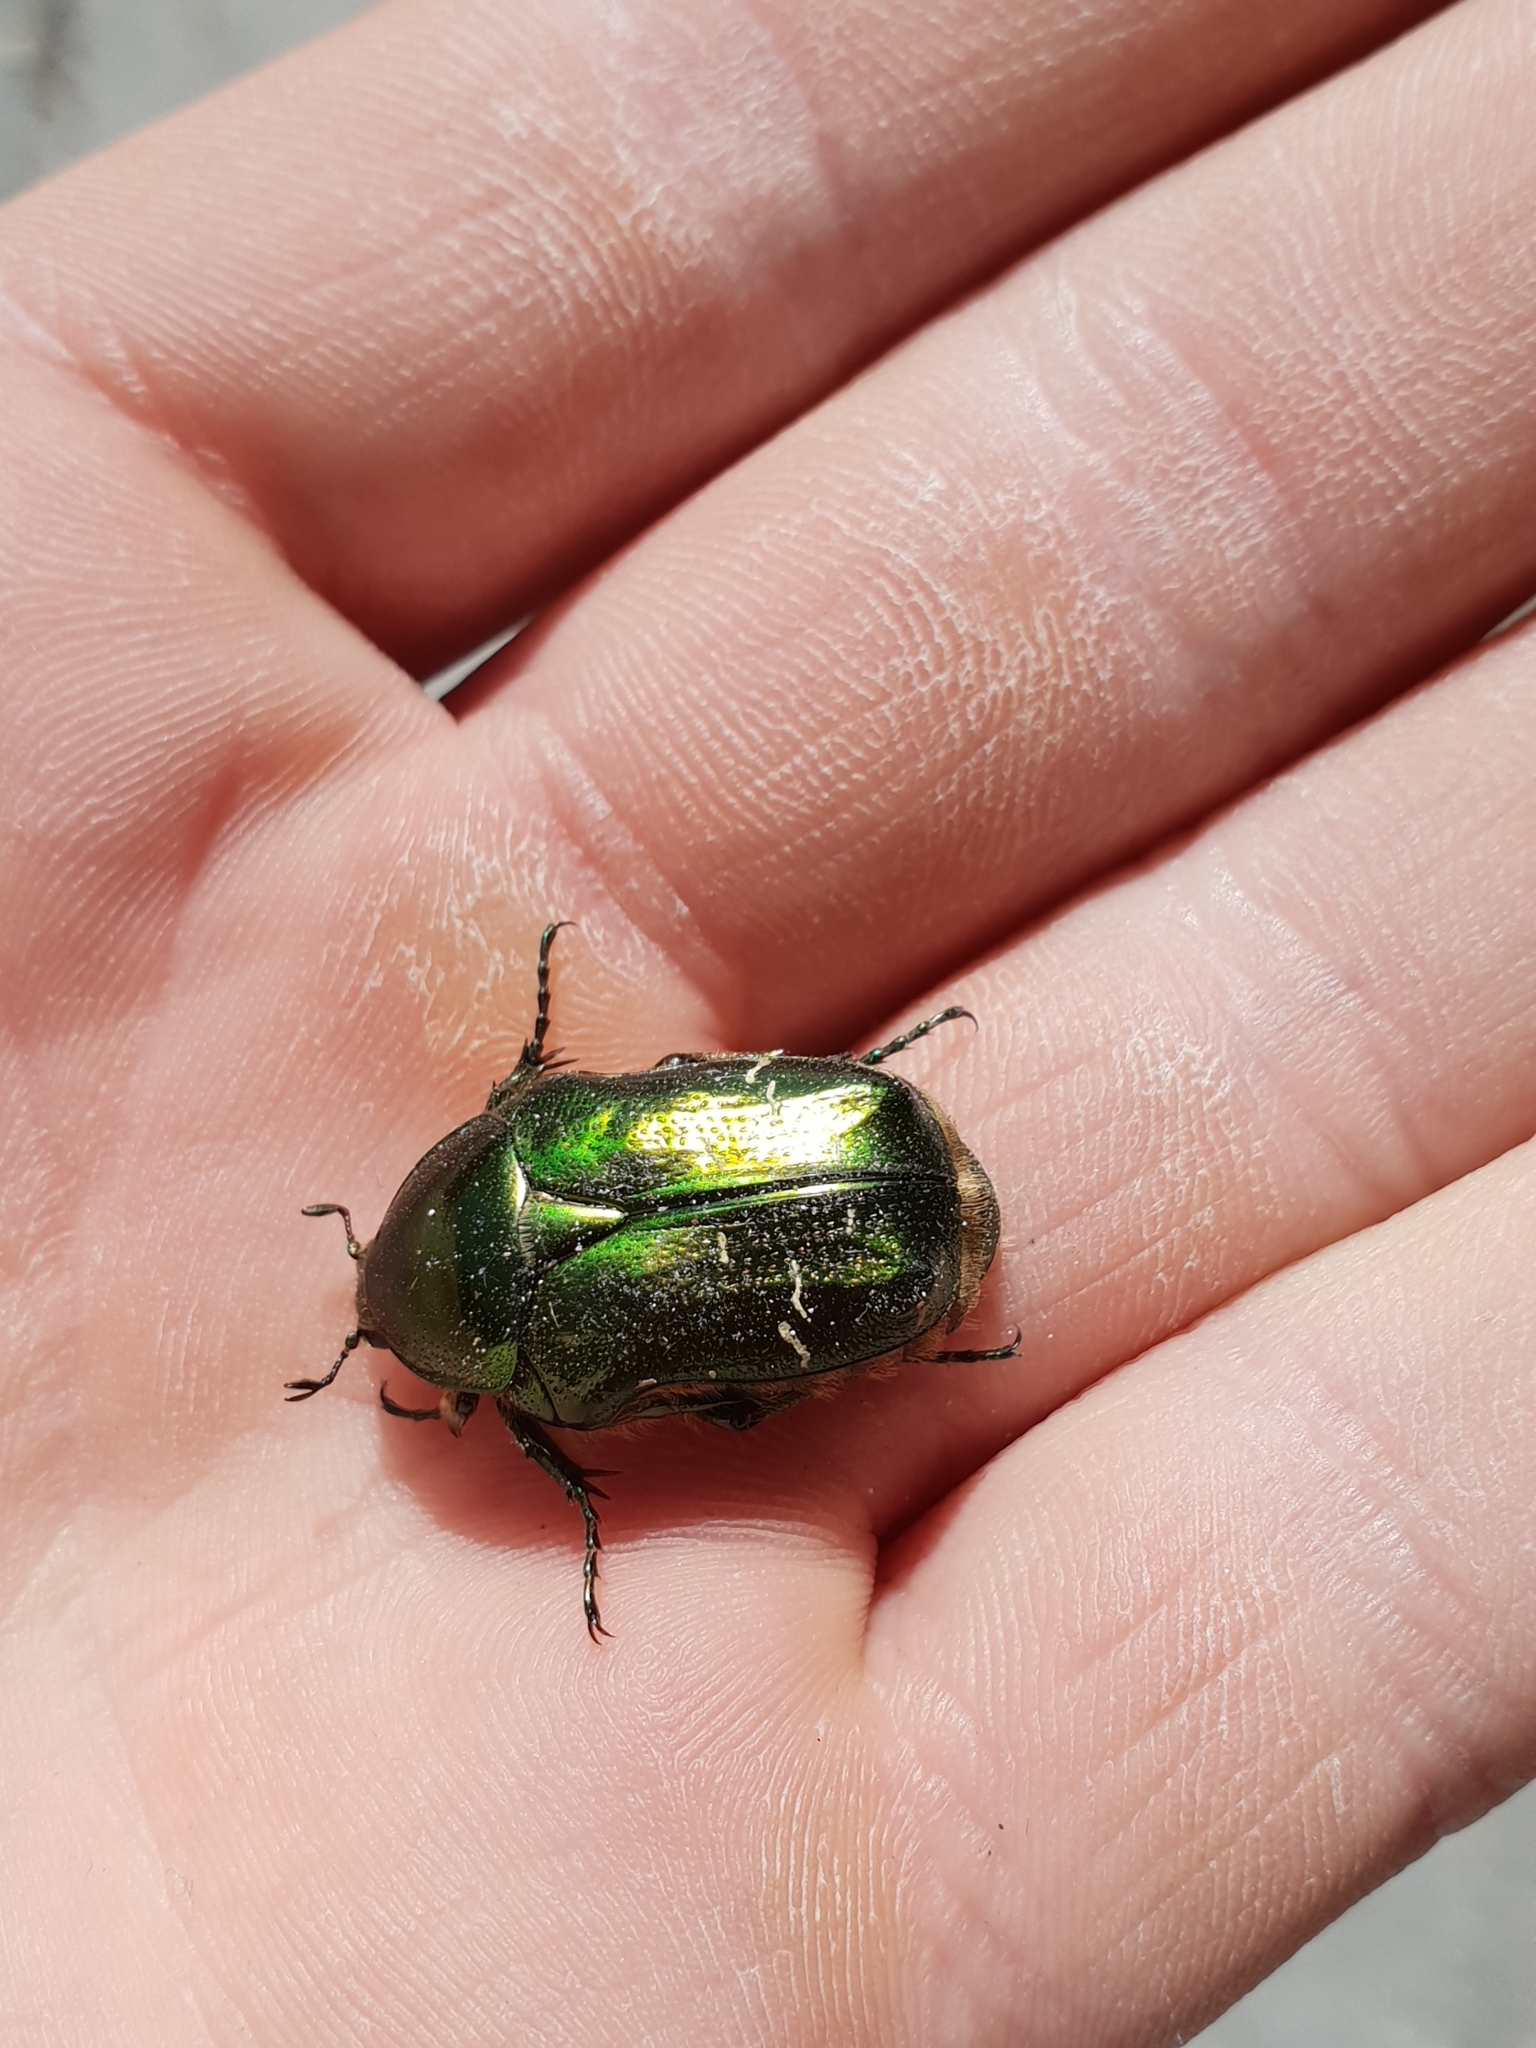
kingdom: Animalia
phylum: Arthropoda
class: Insecta
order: Coleoptera
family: Scarabaeidae
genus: Cetonia
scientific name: Cetonia aurata
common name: Rose chafer
